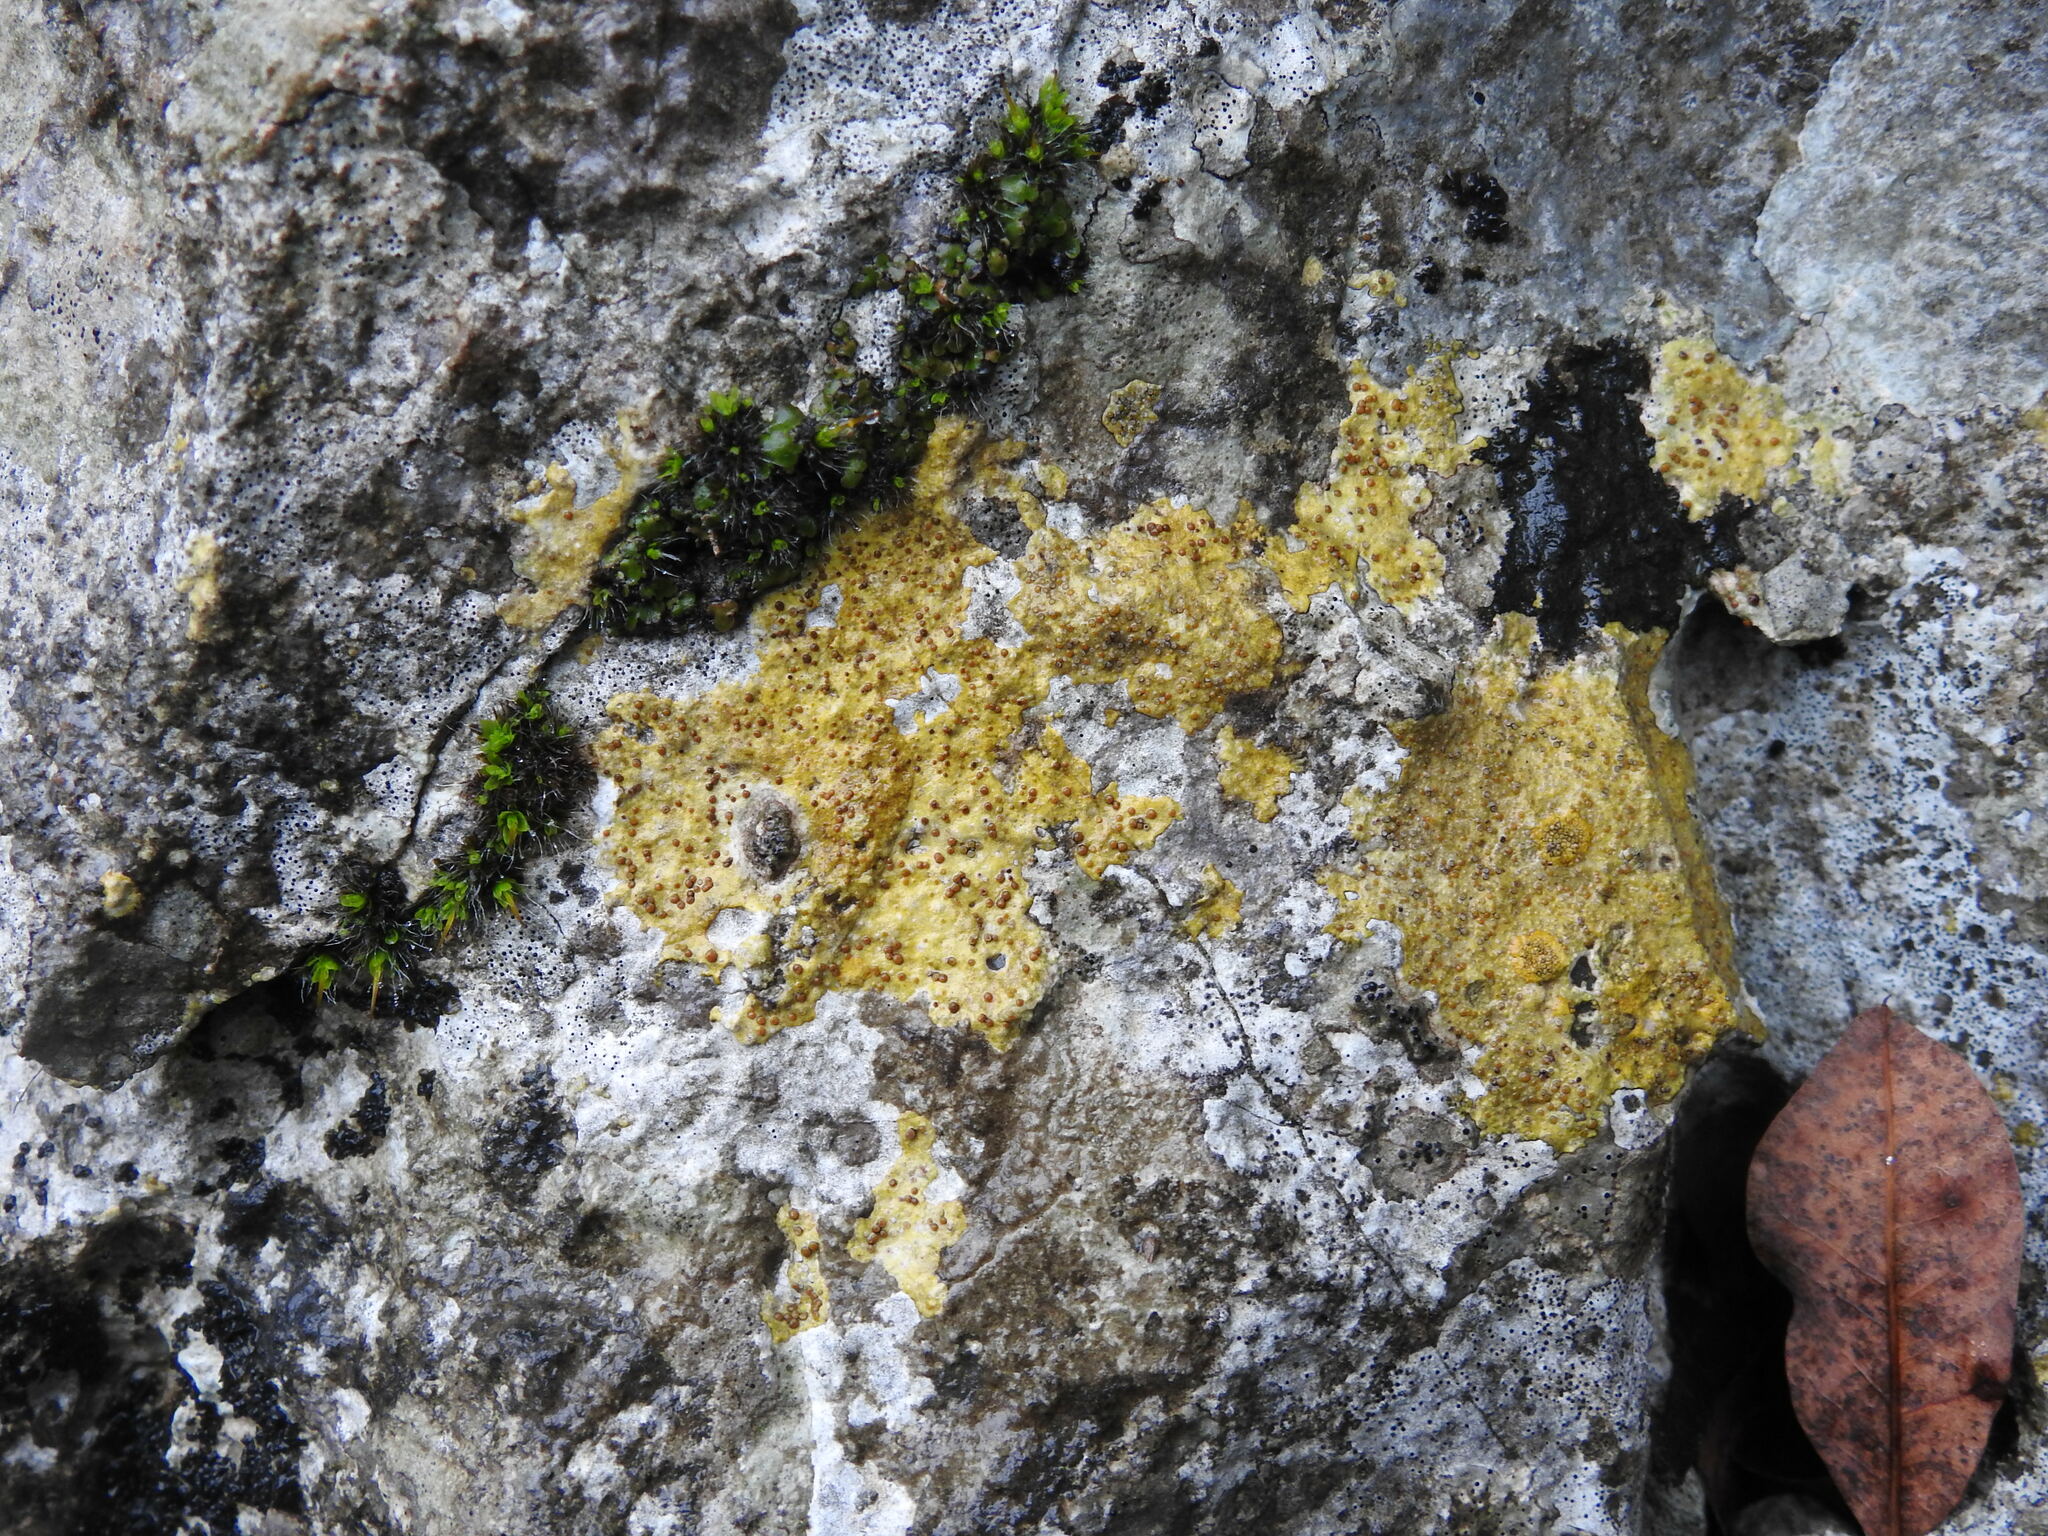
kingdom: Fungi
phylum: Ascomycota
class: Lecanoromycetes
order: Teloschistales
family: Teloschistaceae
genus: Caloplaca
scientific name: Caloplaca ochracea
